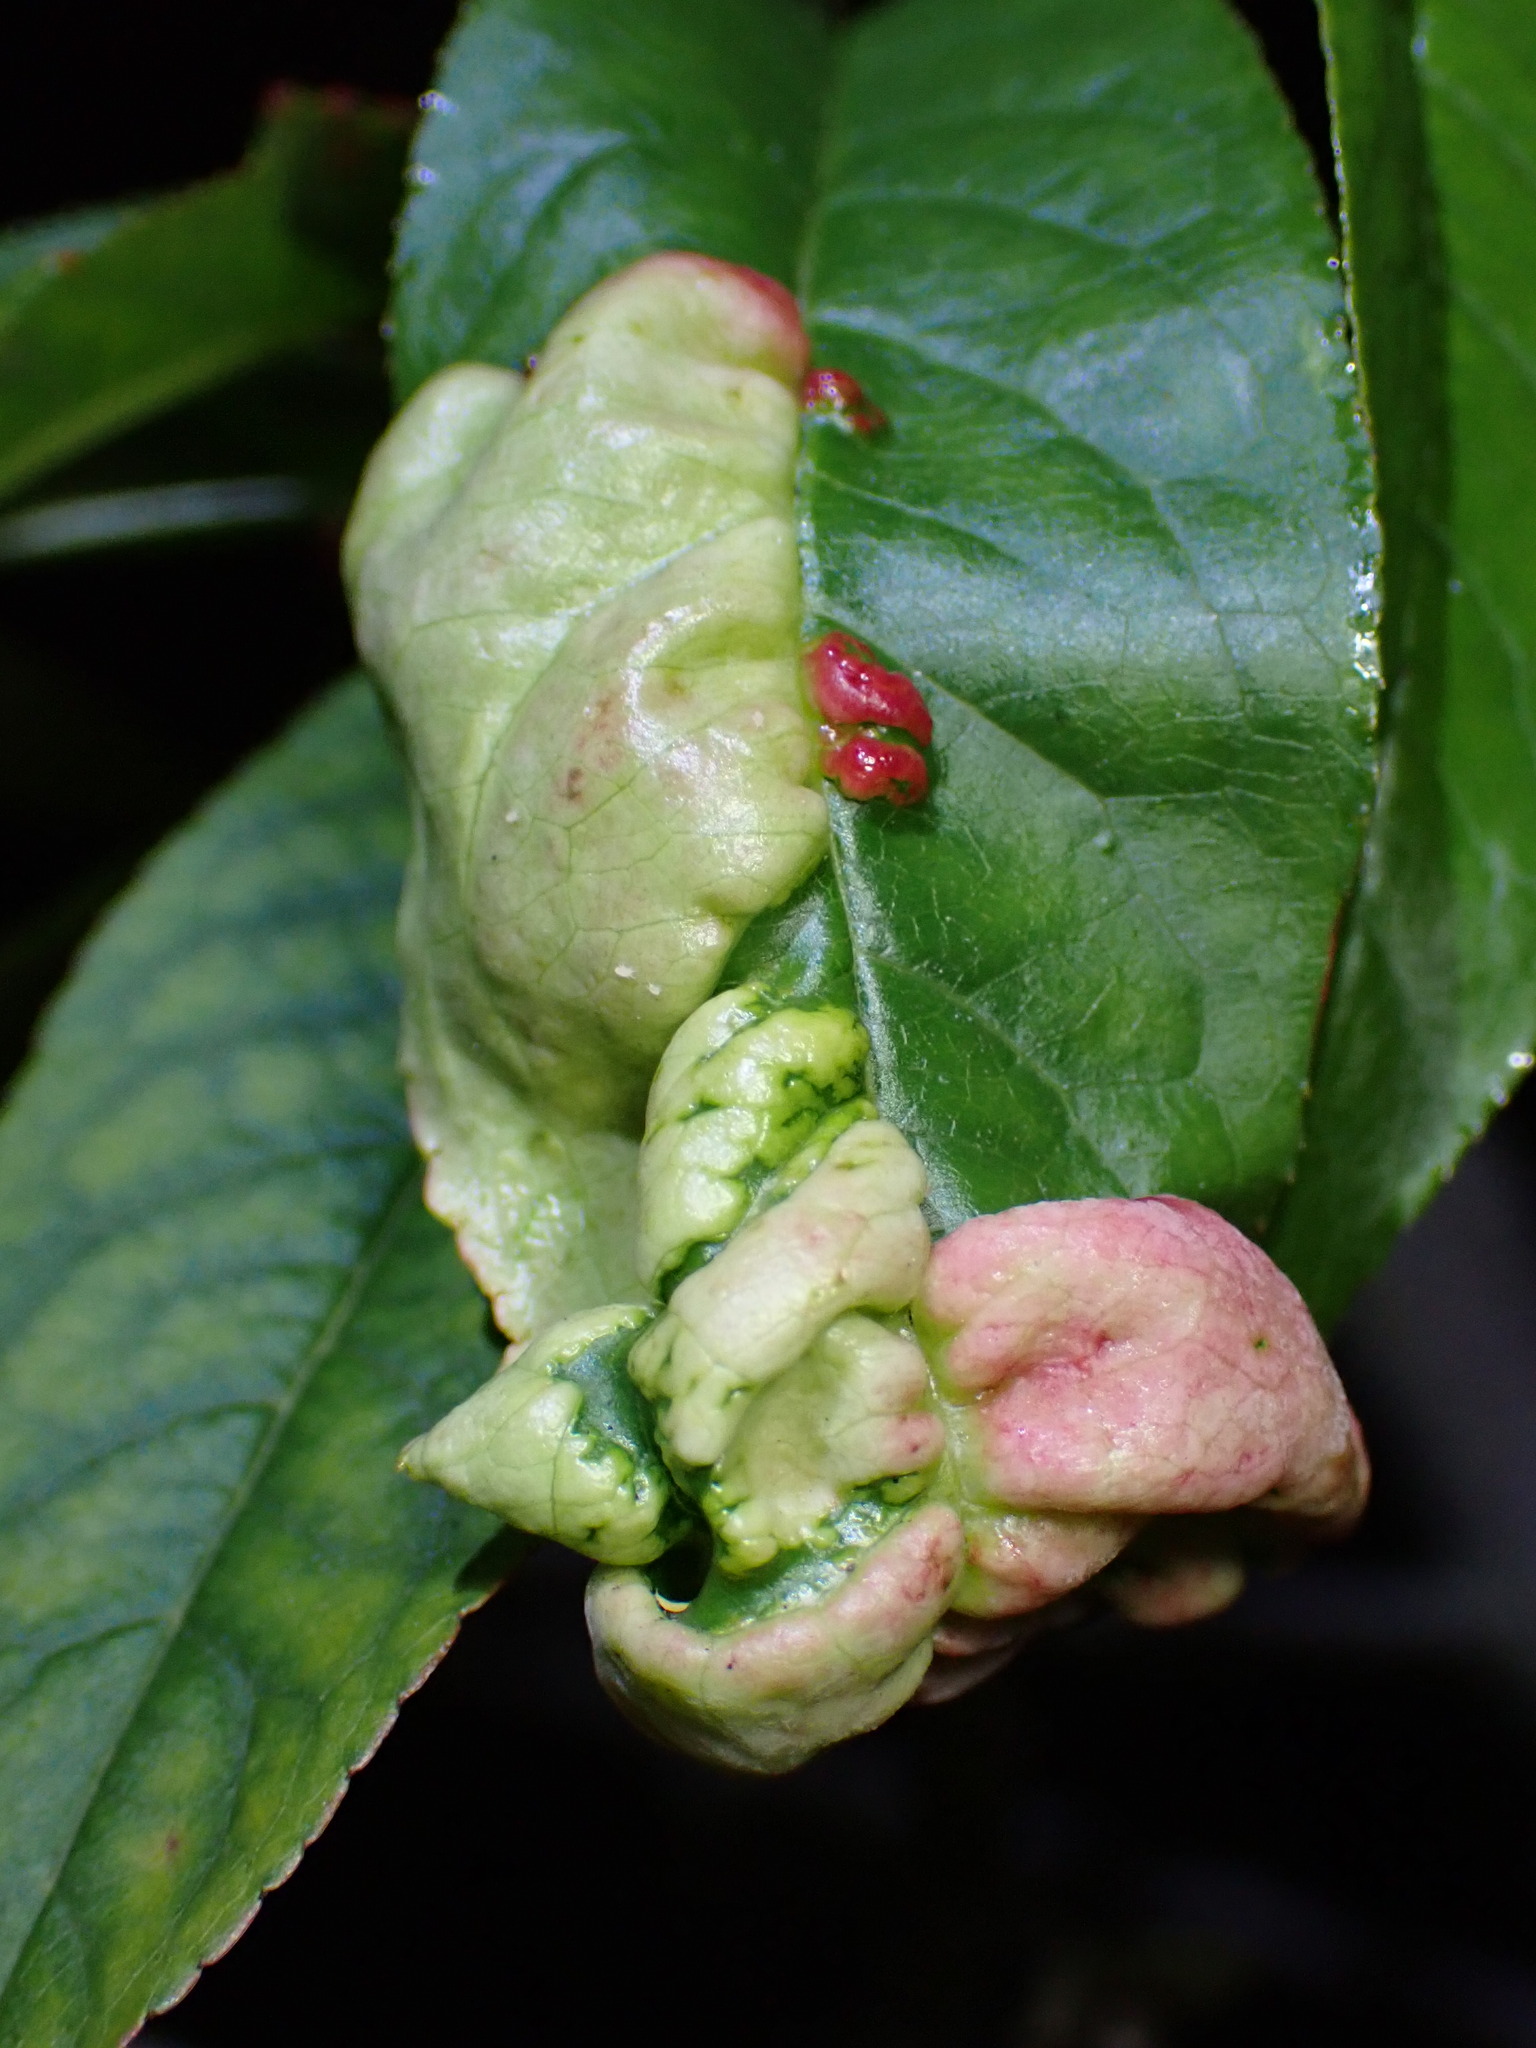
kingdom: Fungi
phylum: Ascomycota
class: Taphrinomycetes
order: Taphrinales
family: Taphrinaceae
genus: Taphrina
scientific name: Taphrina deformans
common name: Peach leaf curl
